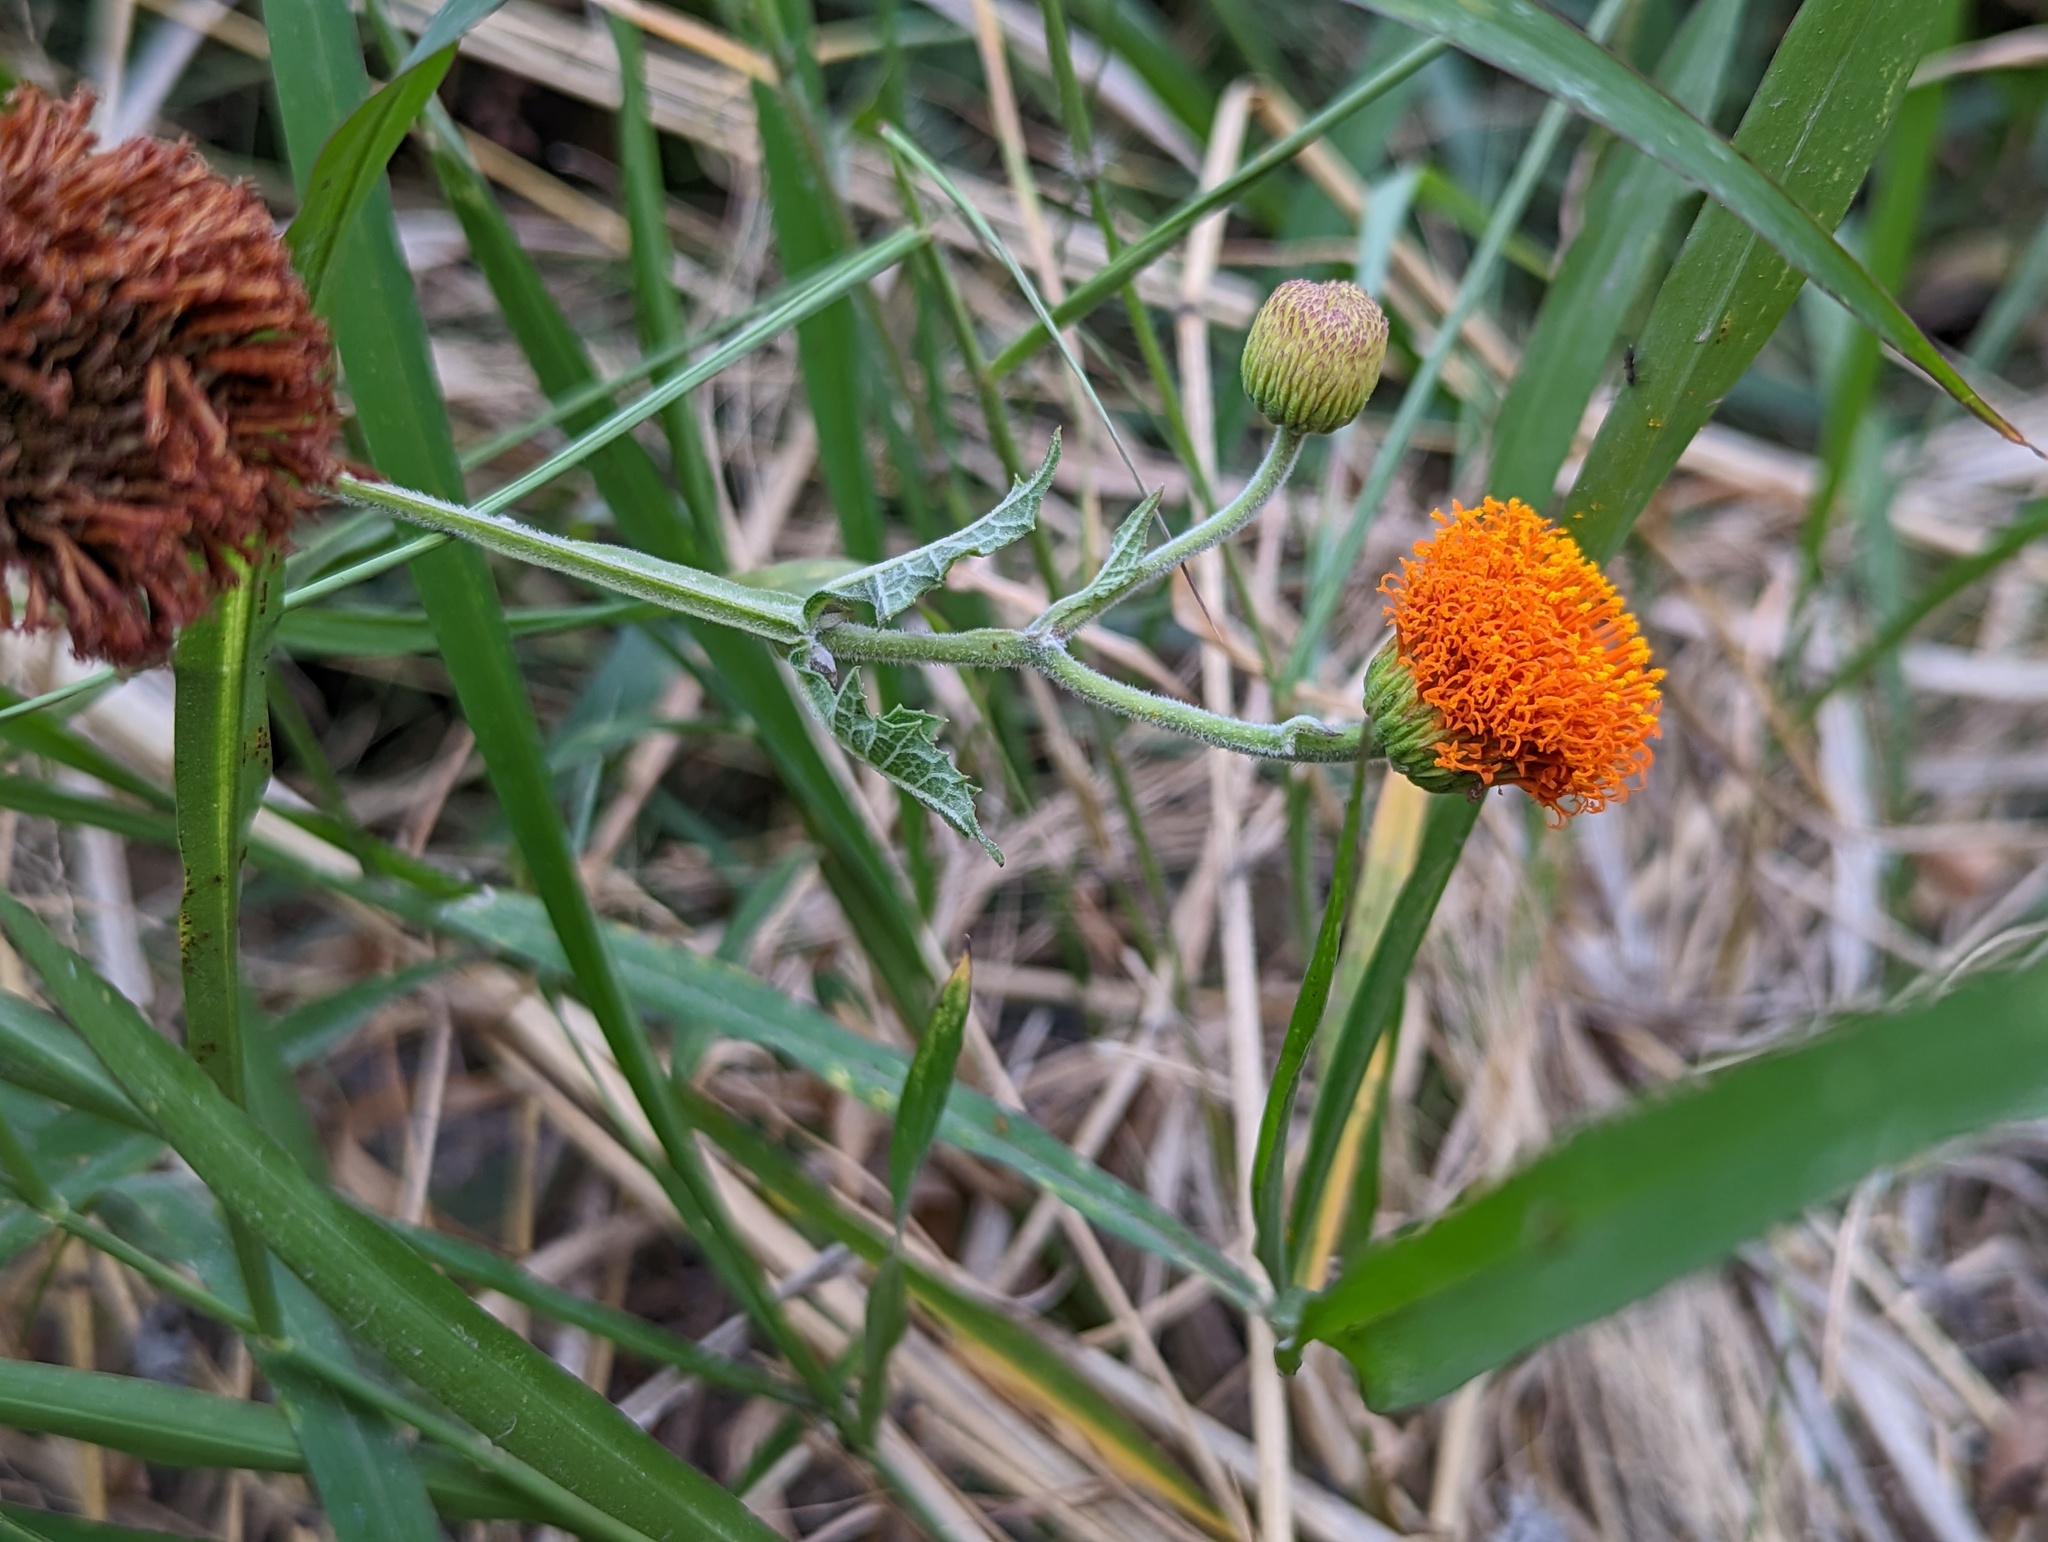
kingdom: Plantae
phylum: Tracheophyta
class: Magnoliopsida
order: Asterales
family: Asteraceae
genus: Verbesina
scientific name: Verbesina crocata
